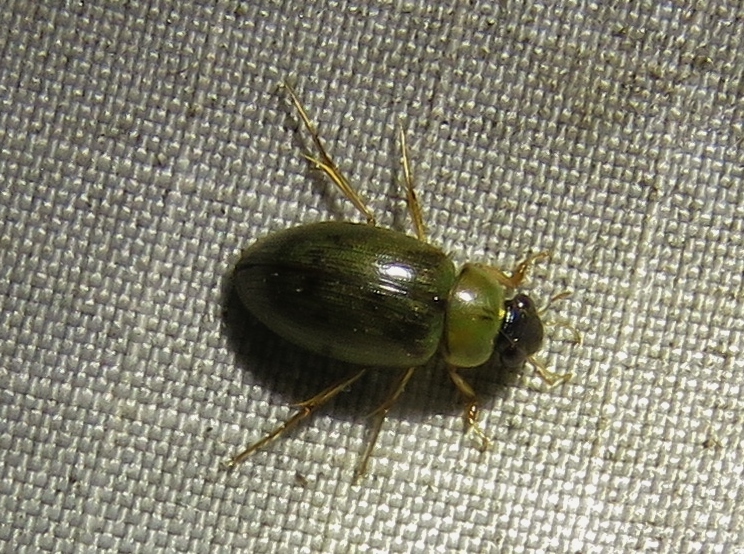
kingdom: Animalia
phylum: Arthropoda
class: Insecta
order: Coleoptera
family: Hydrophilidae
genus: Berosus
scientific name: Berosus
